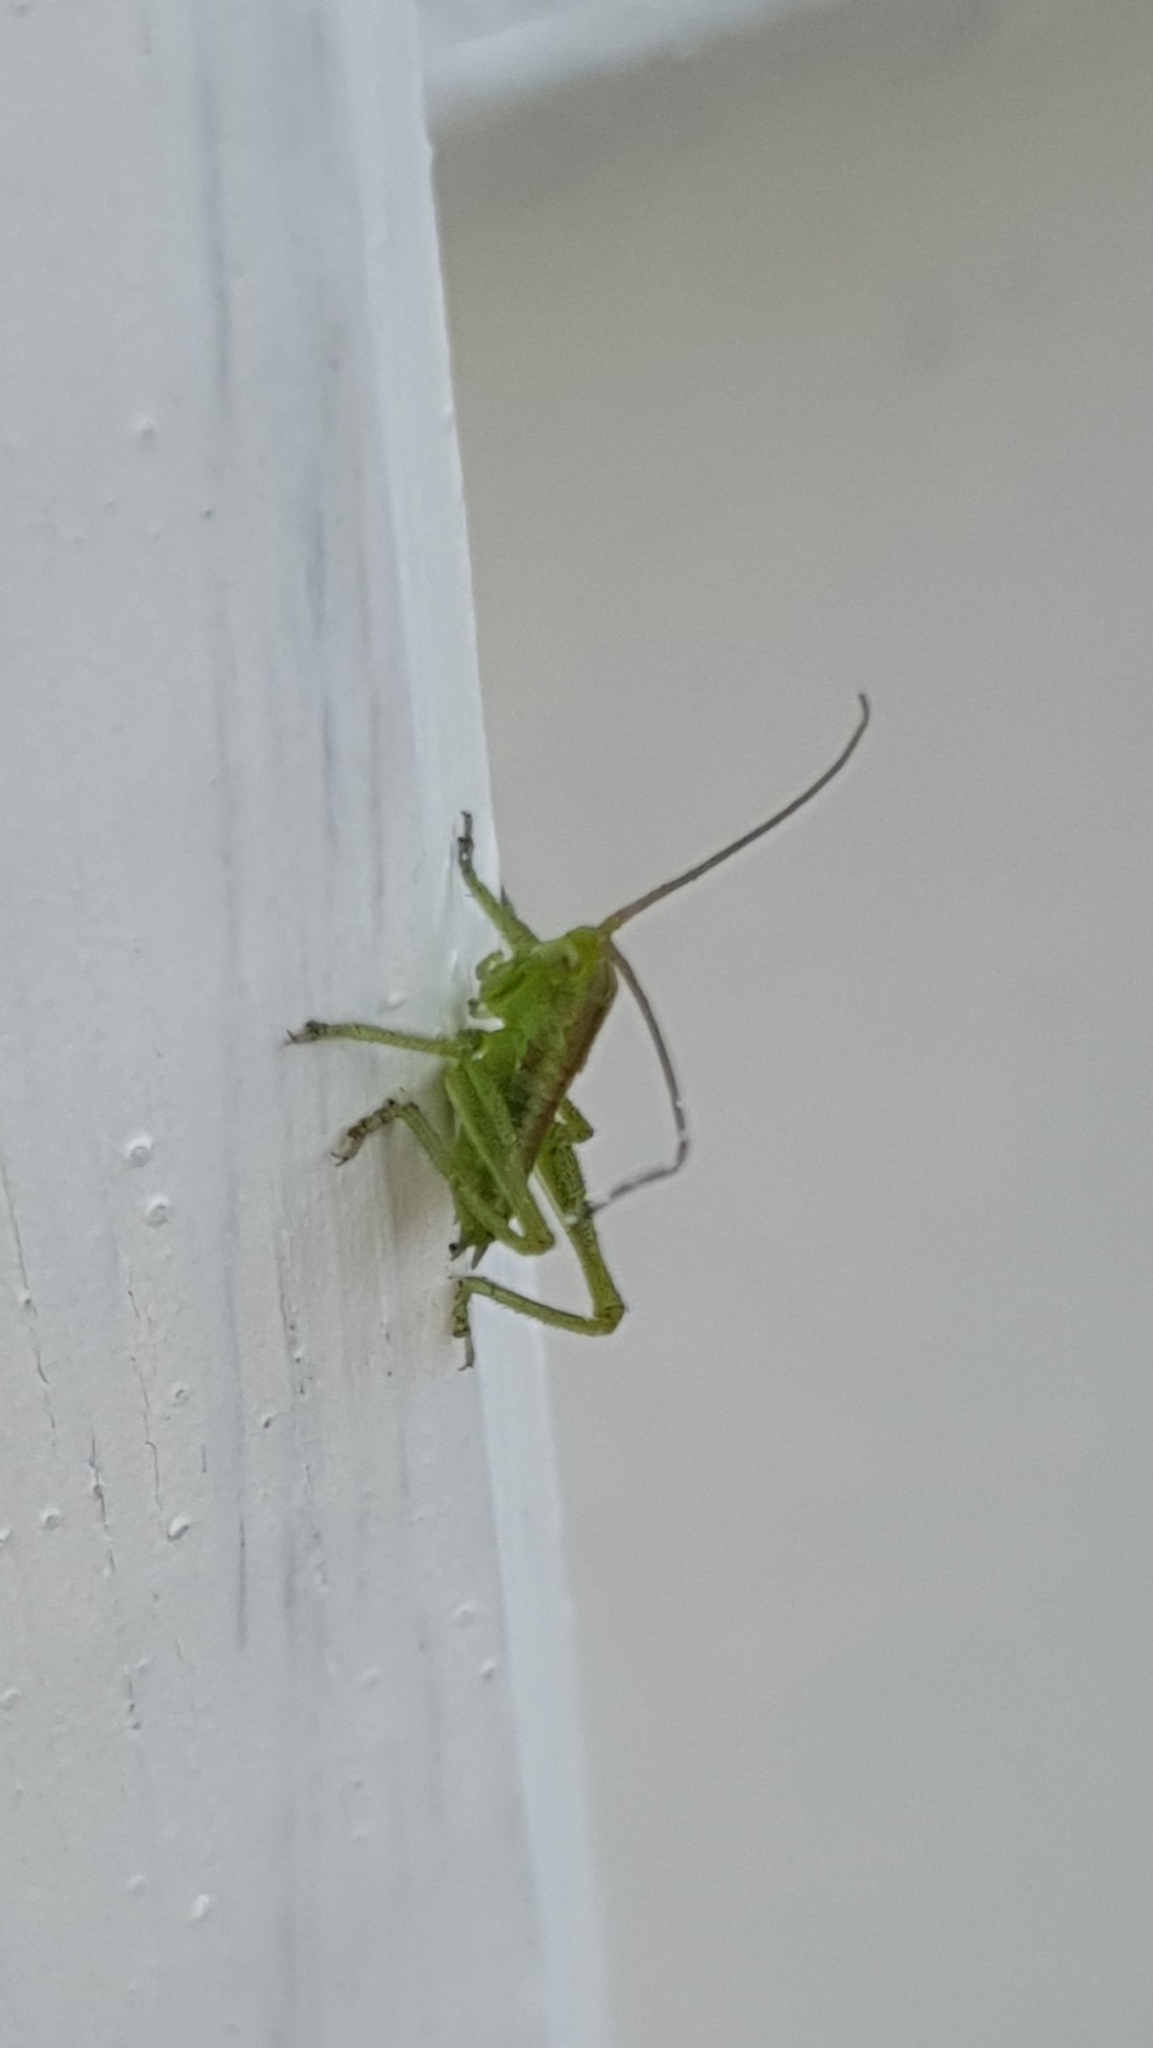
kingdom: Animalia
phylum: Arthropoda
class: Insecta
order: Orthoptera
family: Tettigoniidae
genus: Tettigonia
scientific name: Tettigonia viridissima
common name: Great green bush-cricket
